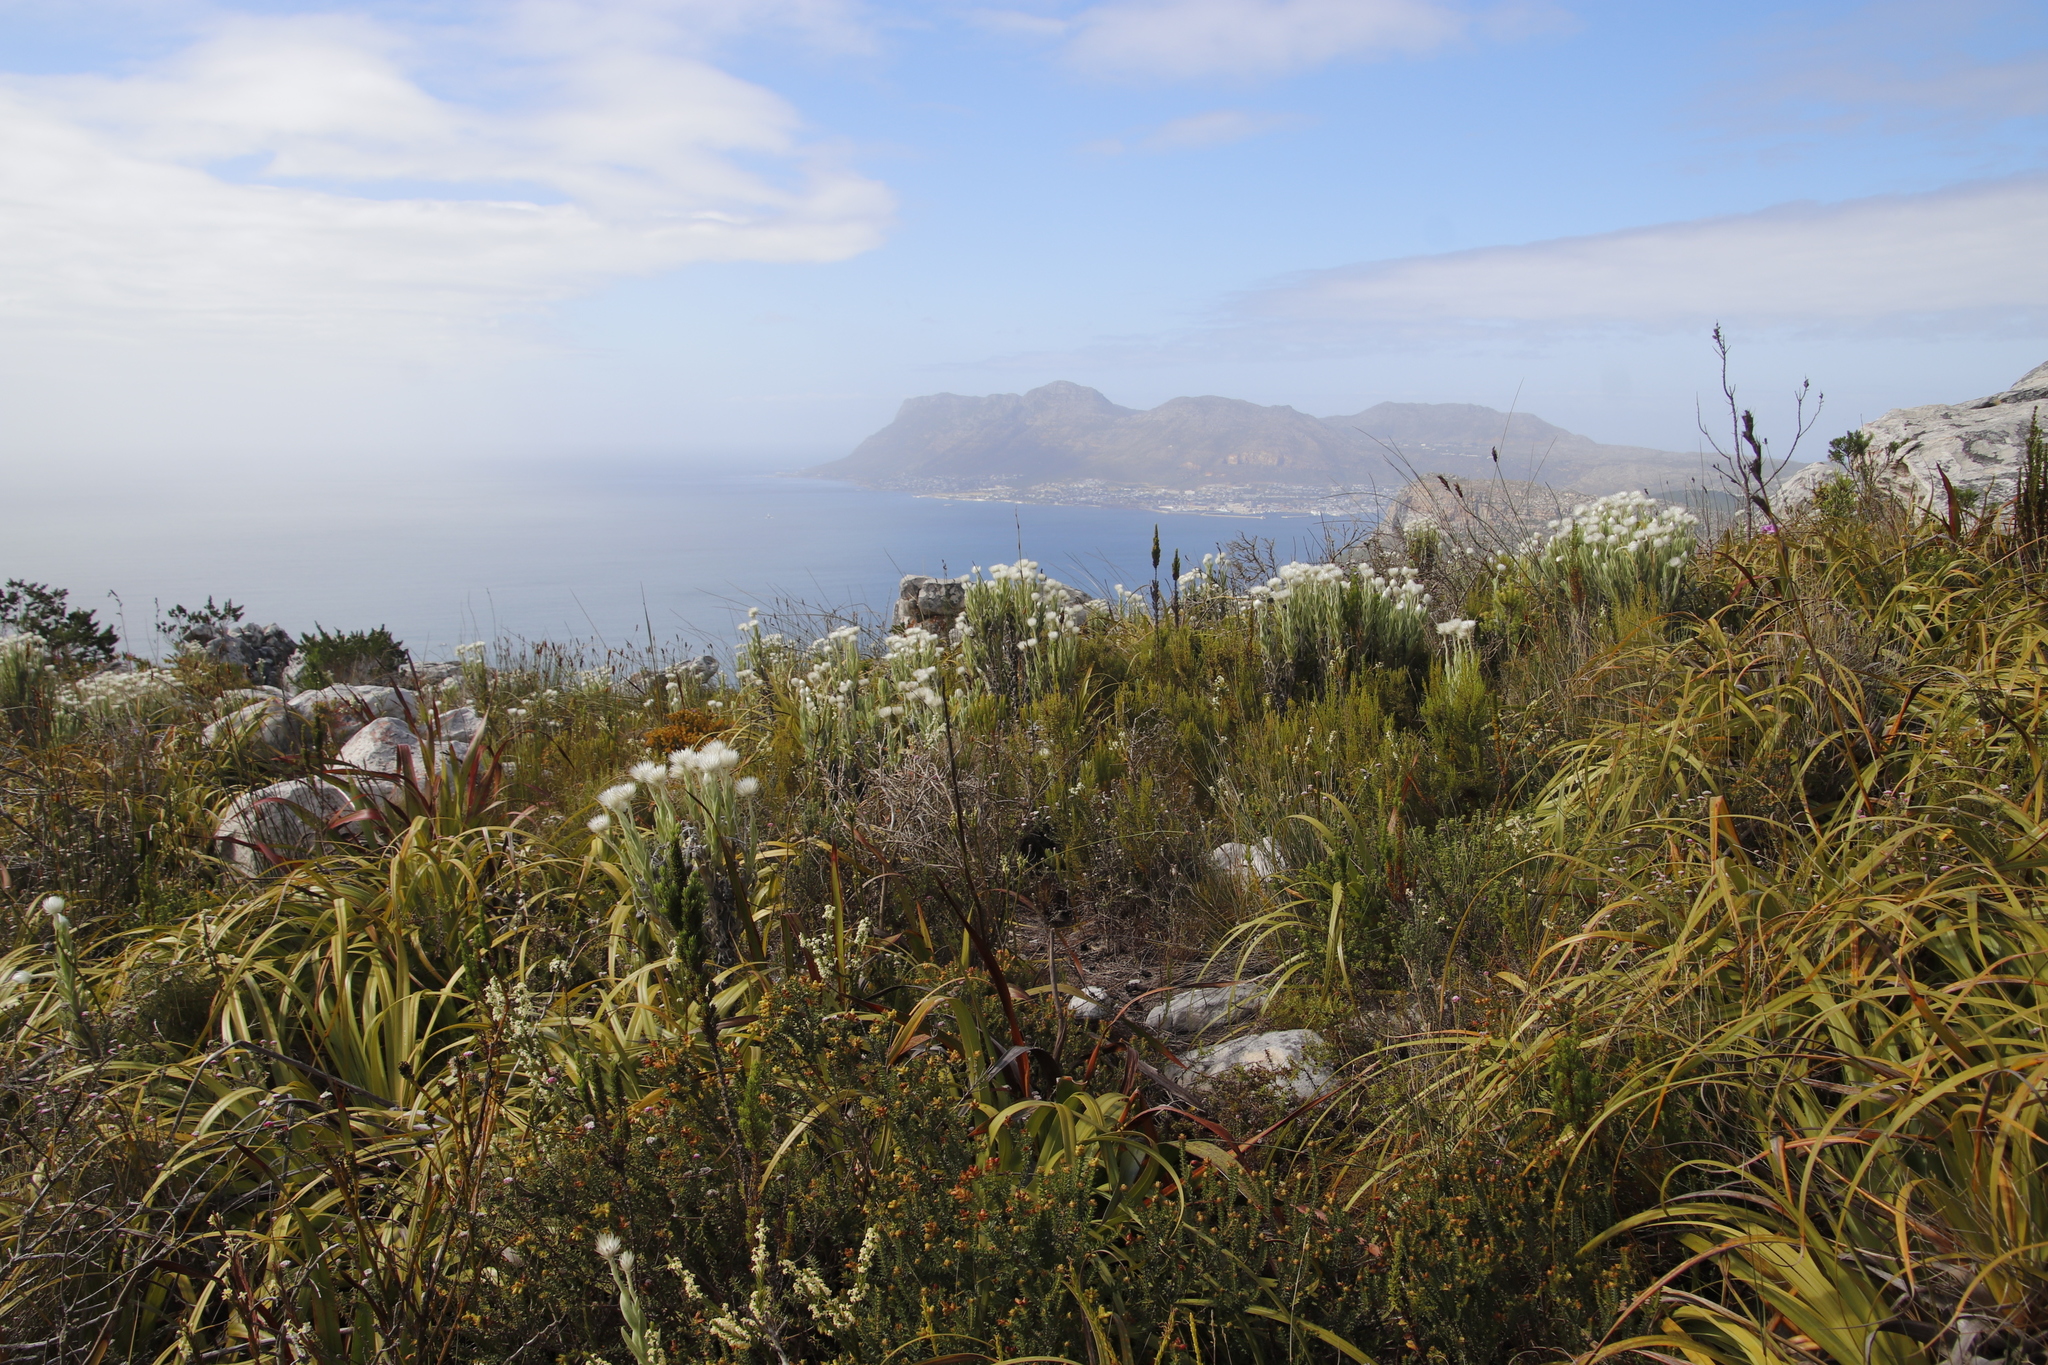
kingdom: Plantae
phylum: Tracheophyta
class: Magnoliopsida
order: Asterales
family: Asteraceae
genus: Syncarpha
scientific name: Syncarpha vestita
